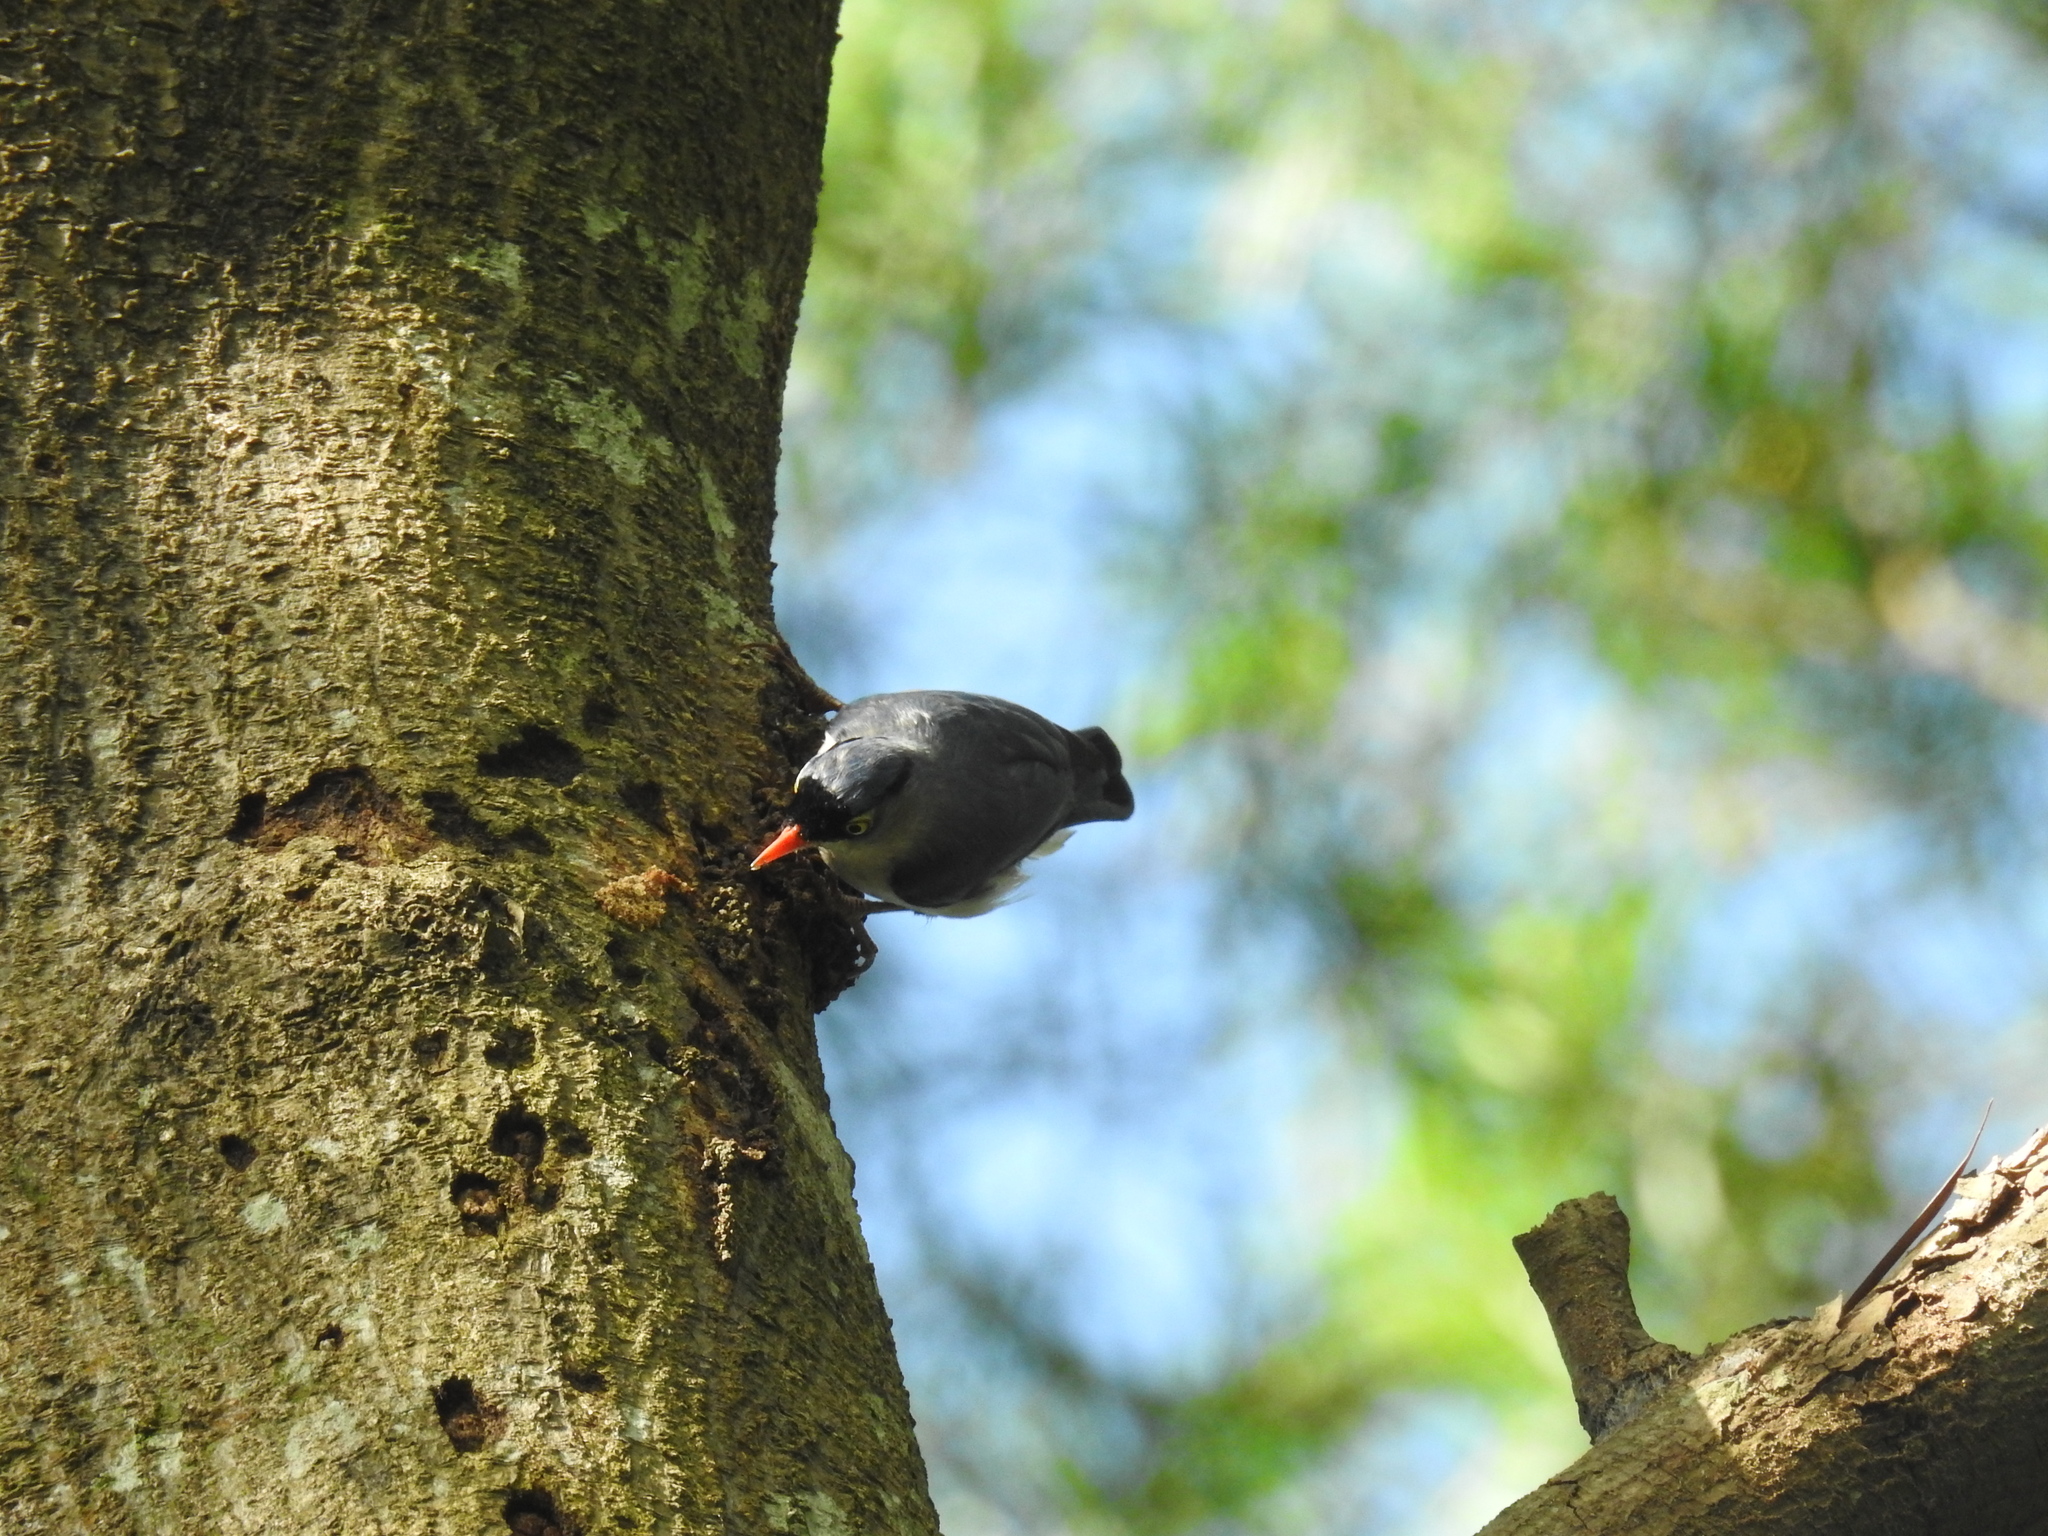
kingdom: Animalia
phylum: Chordata
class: Aves
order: Passeriformes
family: Sittidae
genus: Sitta
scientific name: Sitta frontalis
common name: Velvet-fronted nuthatch
